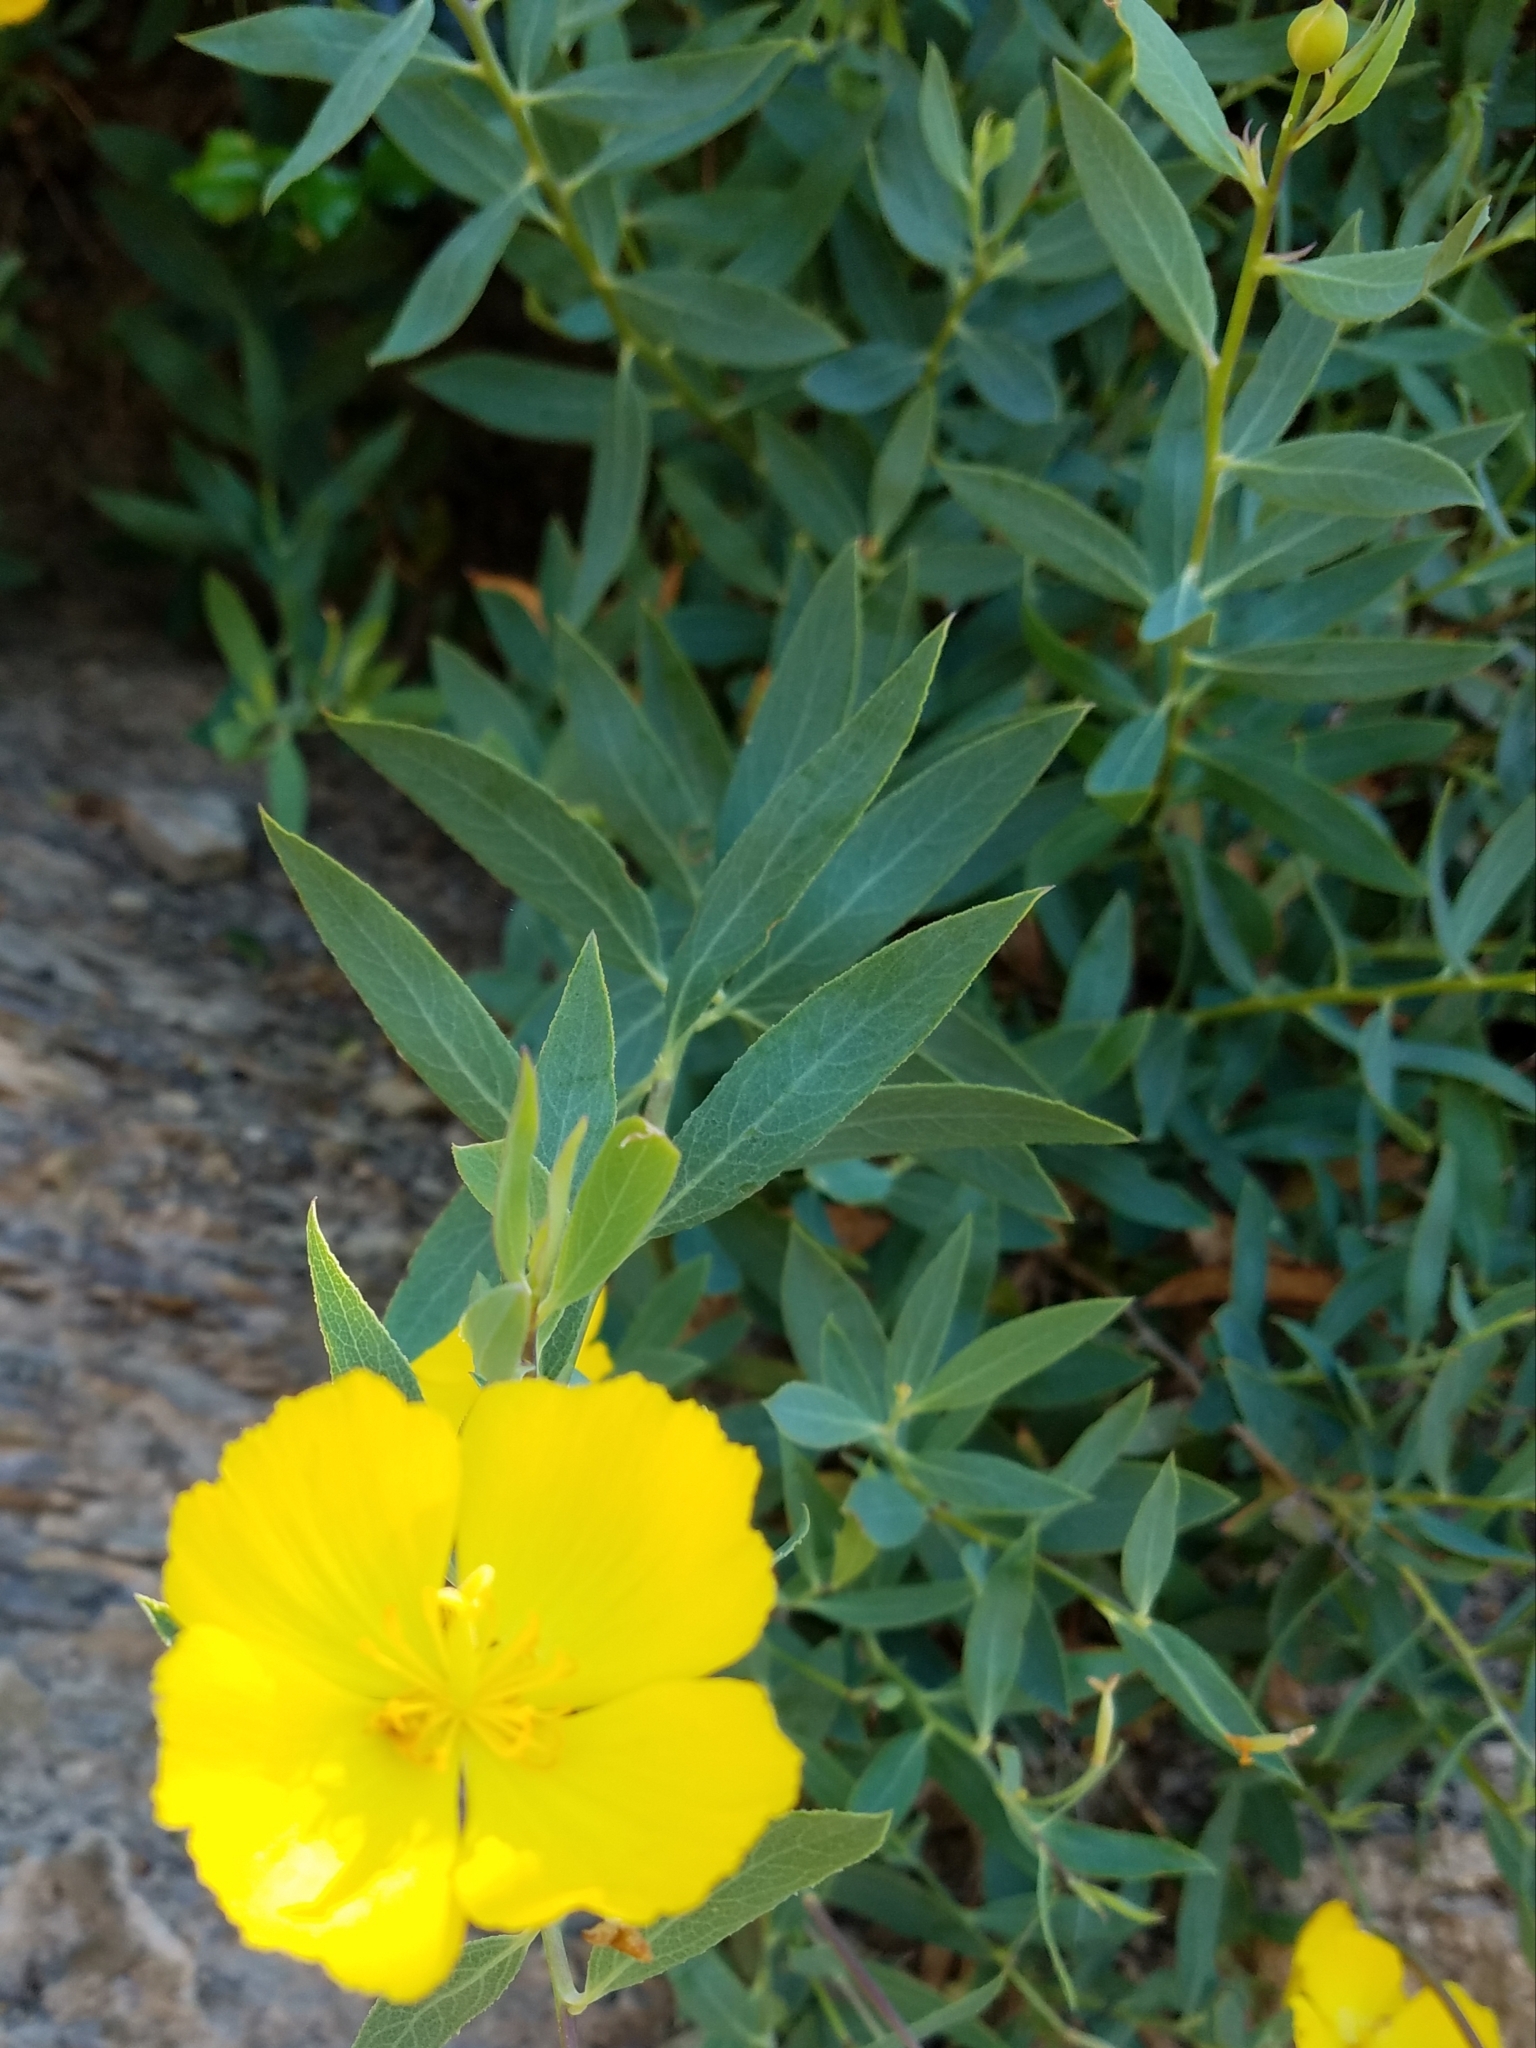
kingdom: Plantae
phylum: Tracheophyta
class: Magnoliopsida
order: Ranunculales
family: Papaveraceae
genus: Dendromecon
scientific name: Dendromecon rigida
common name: Tree poppy
